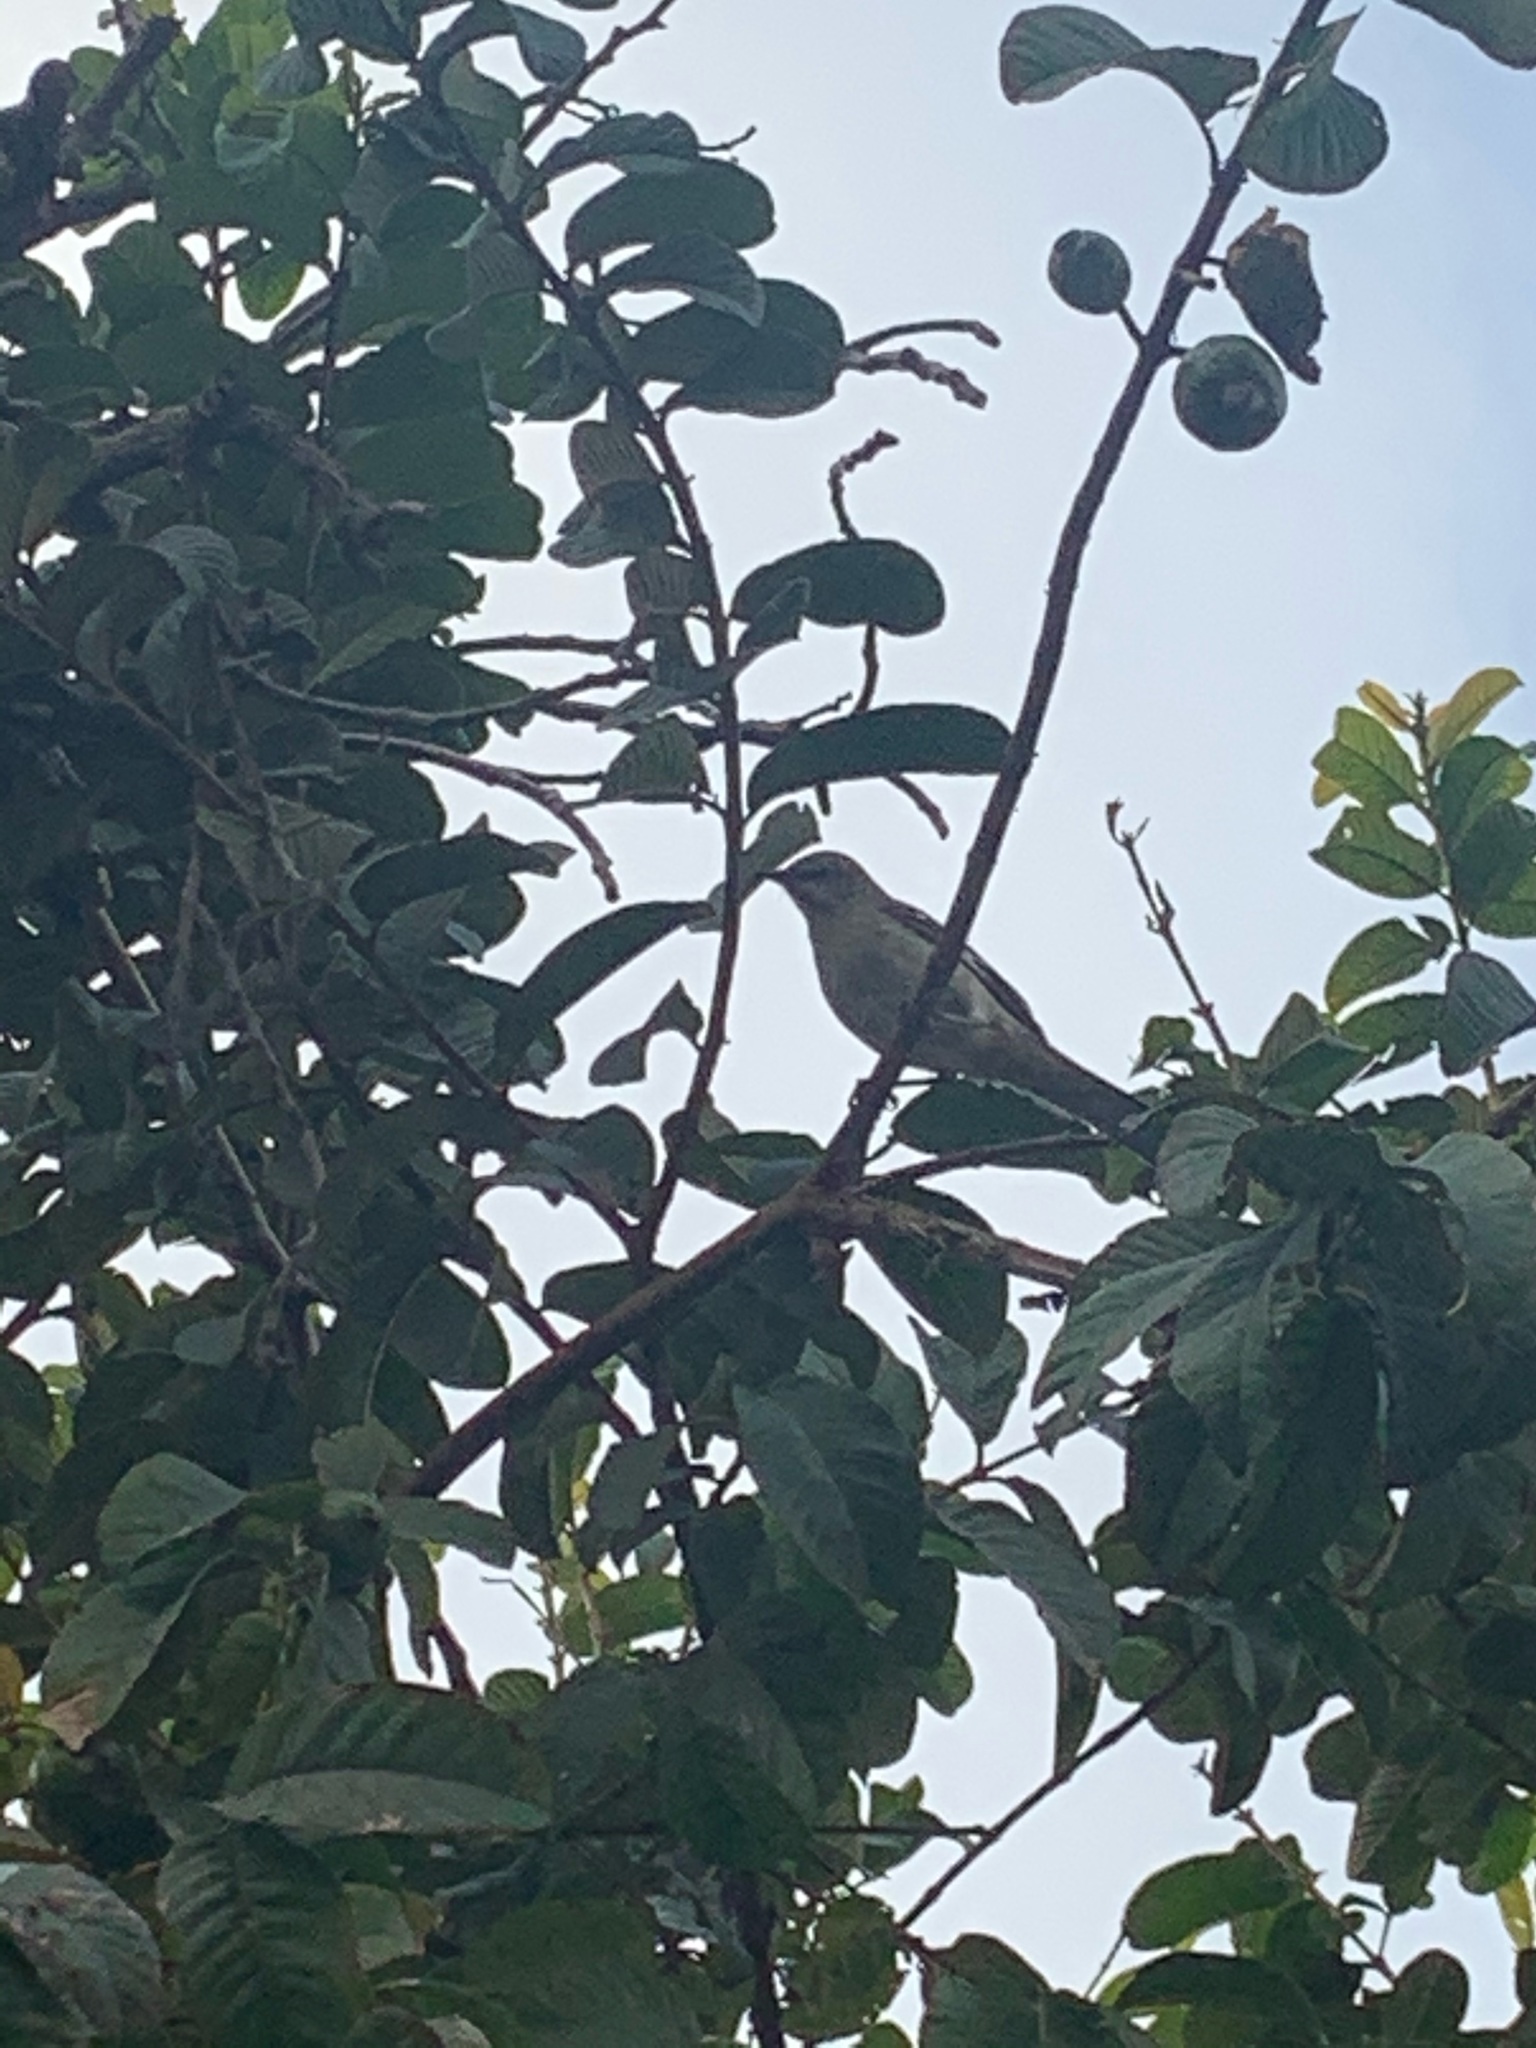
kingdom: Animalia
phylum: Chordata
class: Aves
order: Passeriformes
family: Mimidae
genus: Mimus
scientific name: Mimus polyglottos
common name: Northern mockingbird
